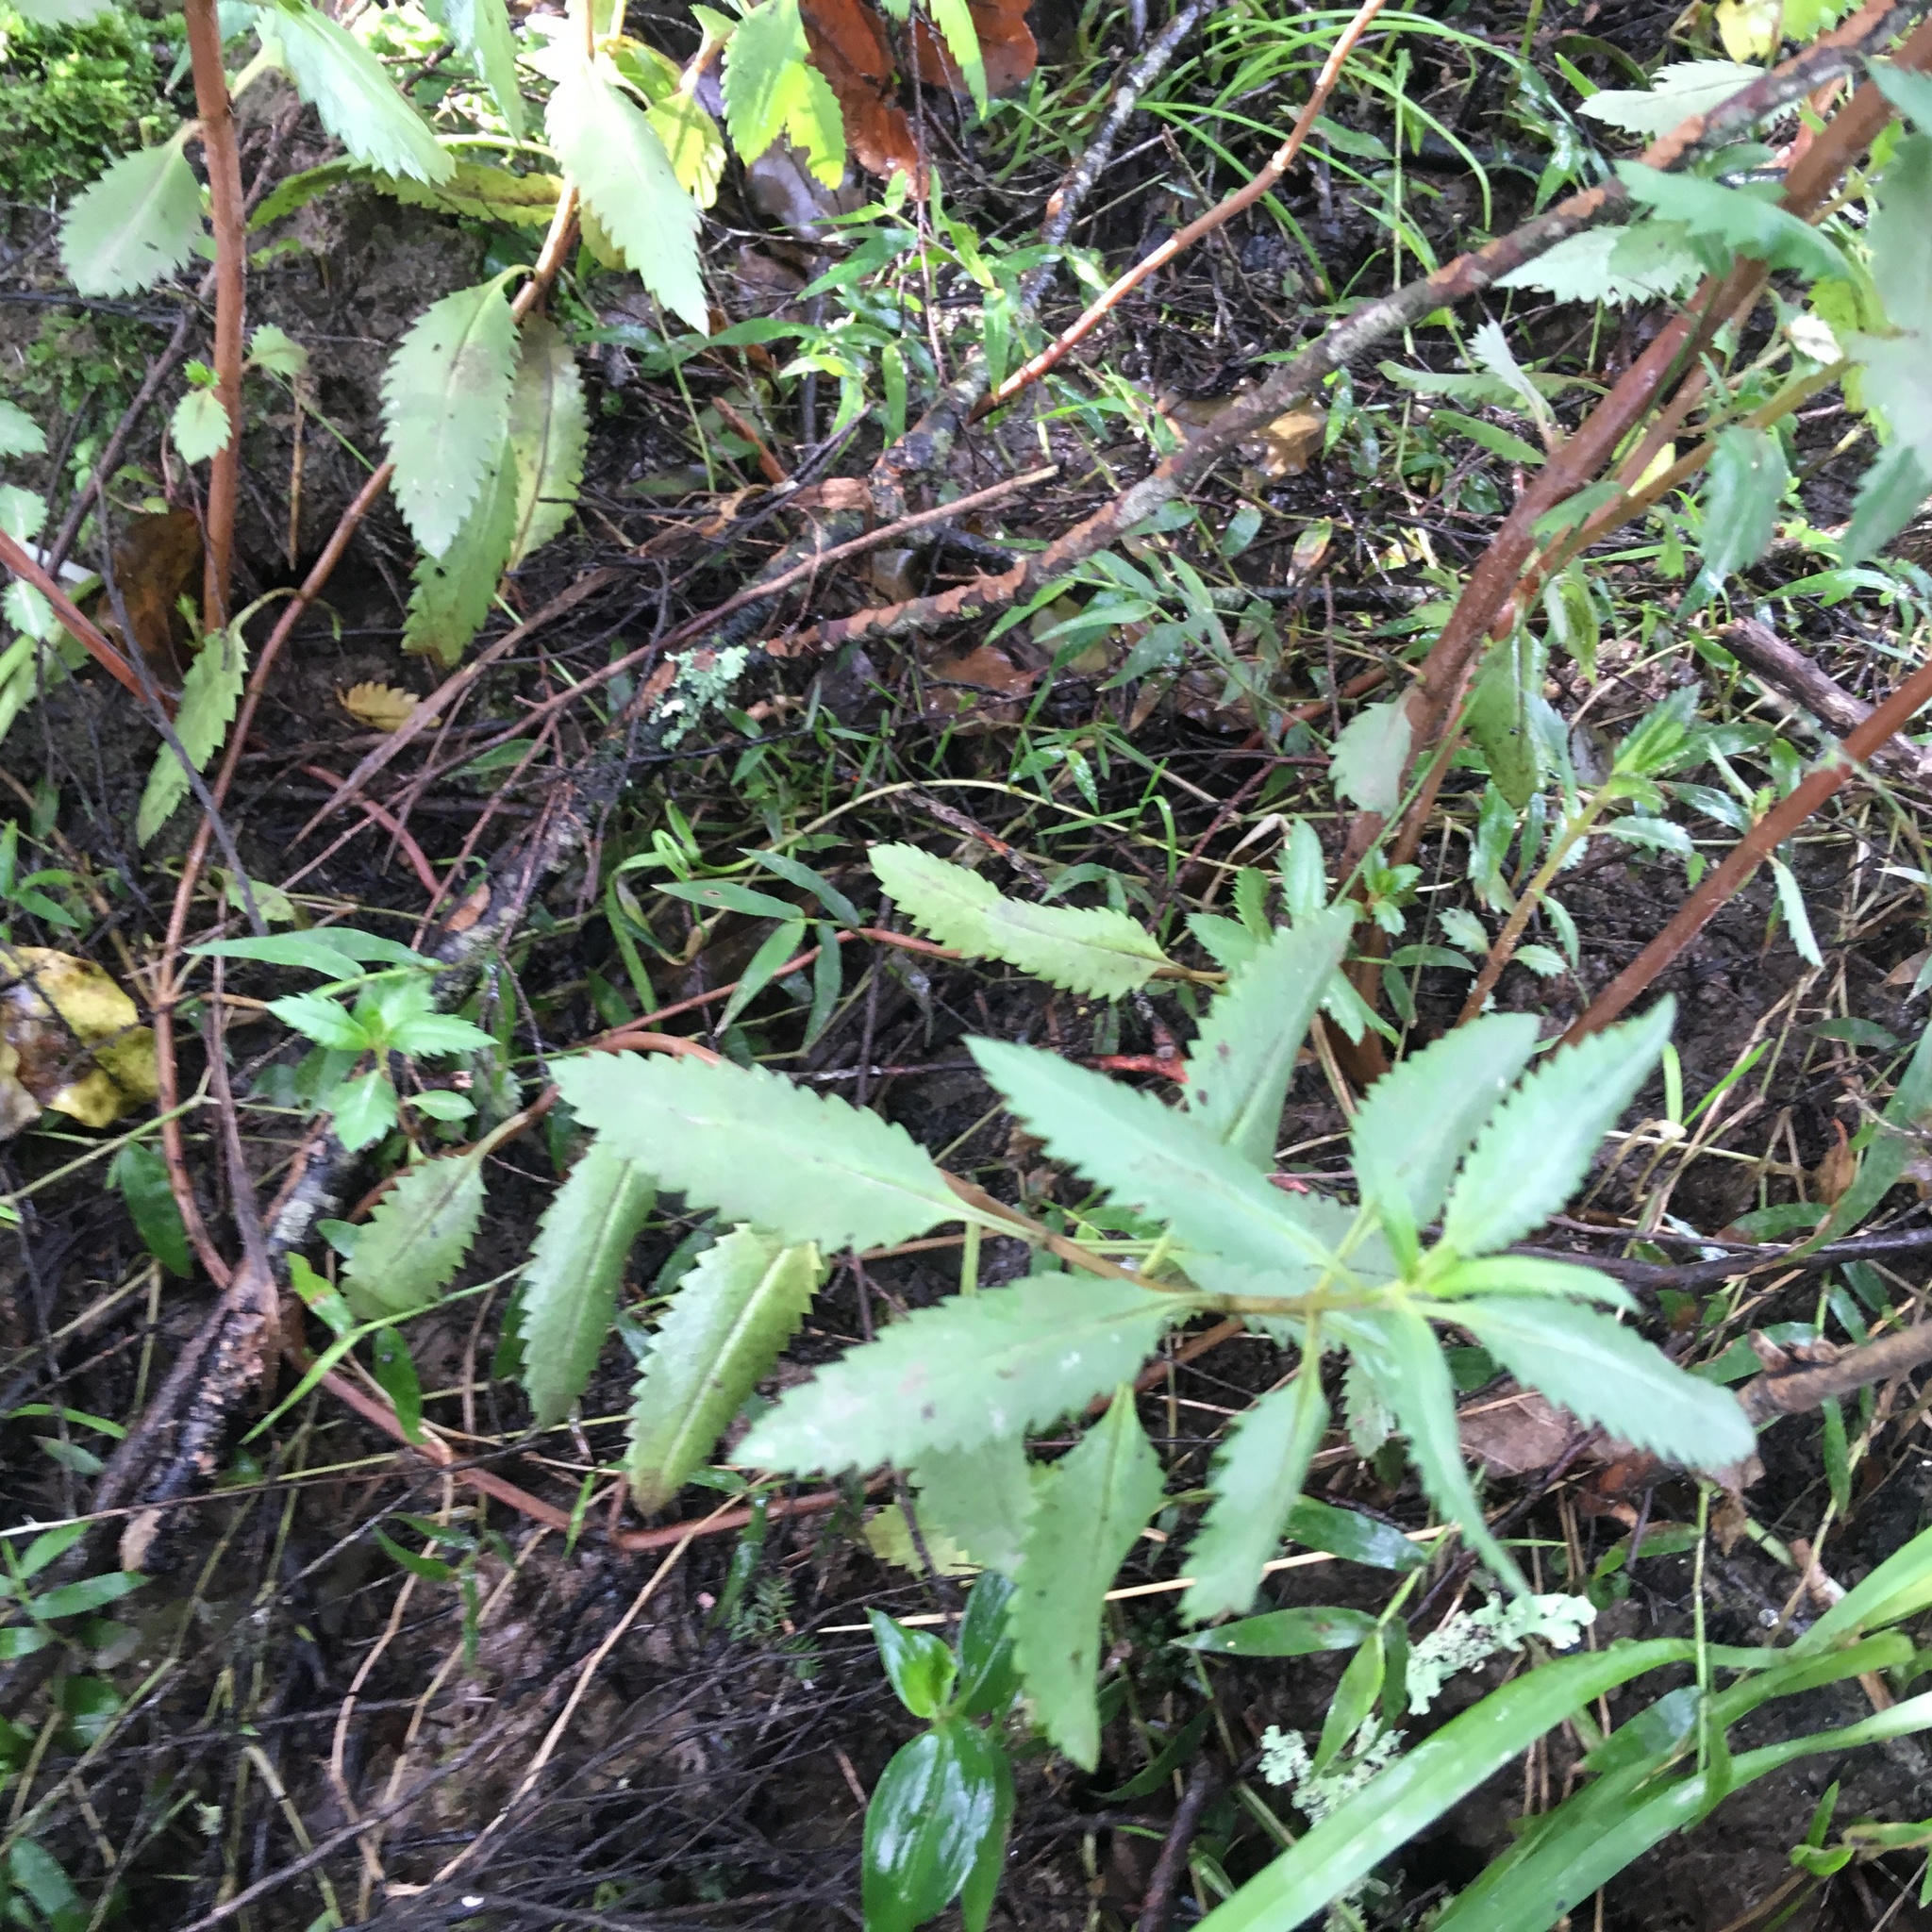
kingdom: Plantae
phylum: Tracheophyta
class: Magnoliopsida
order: Saxifragales
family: Haloragaceae
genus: Haloragis
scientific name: Haloragis erecta
